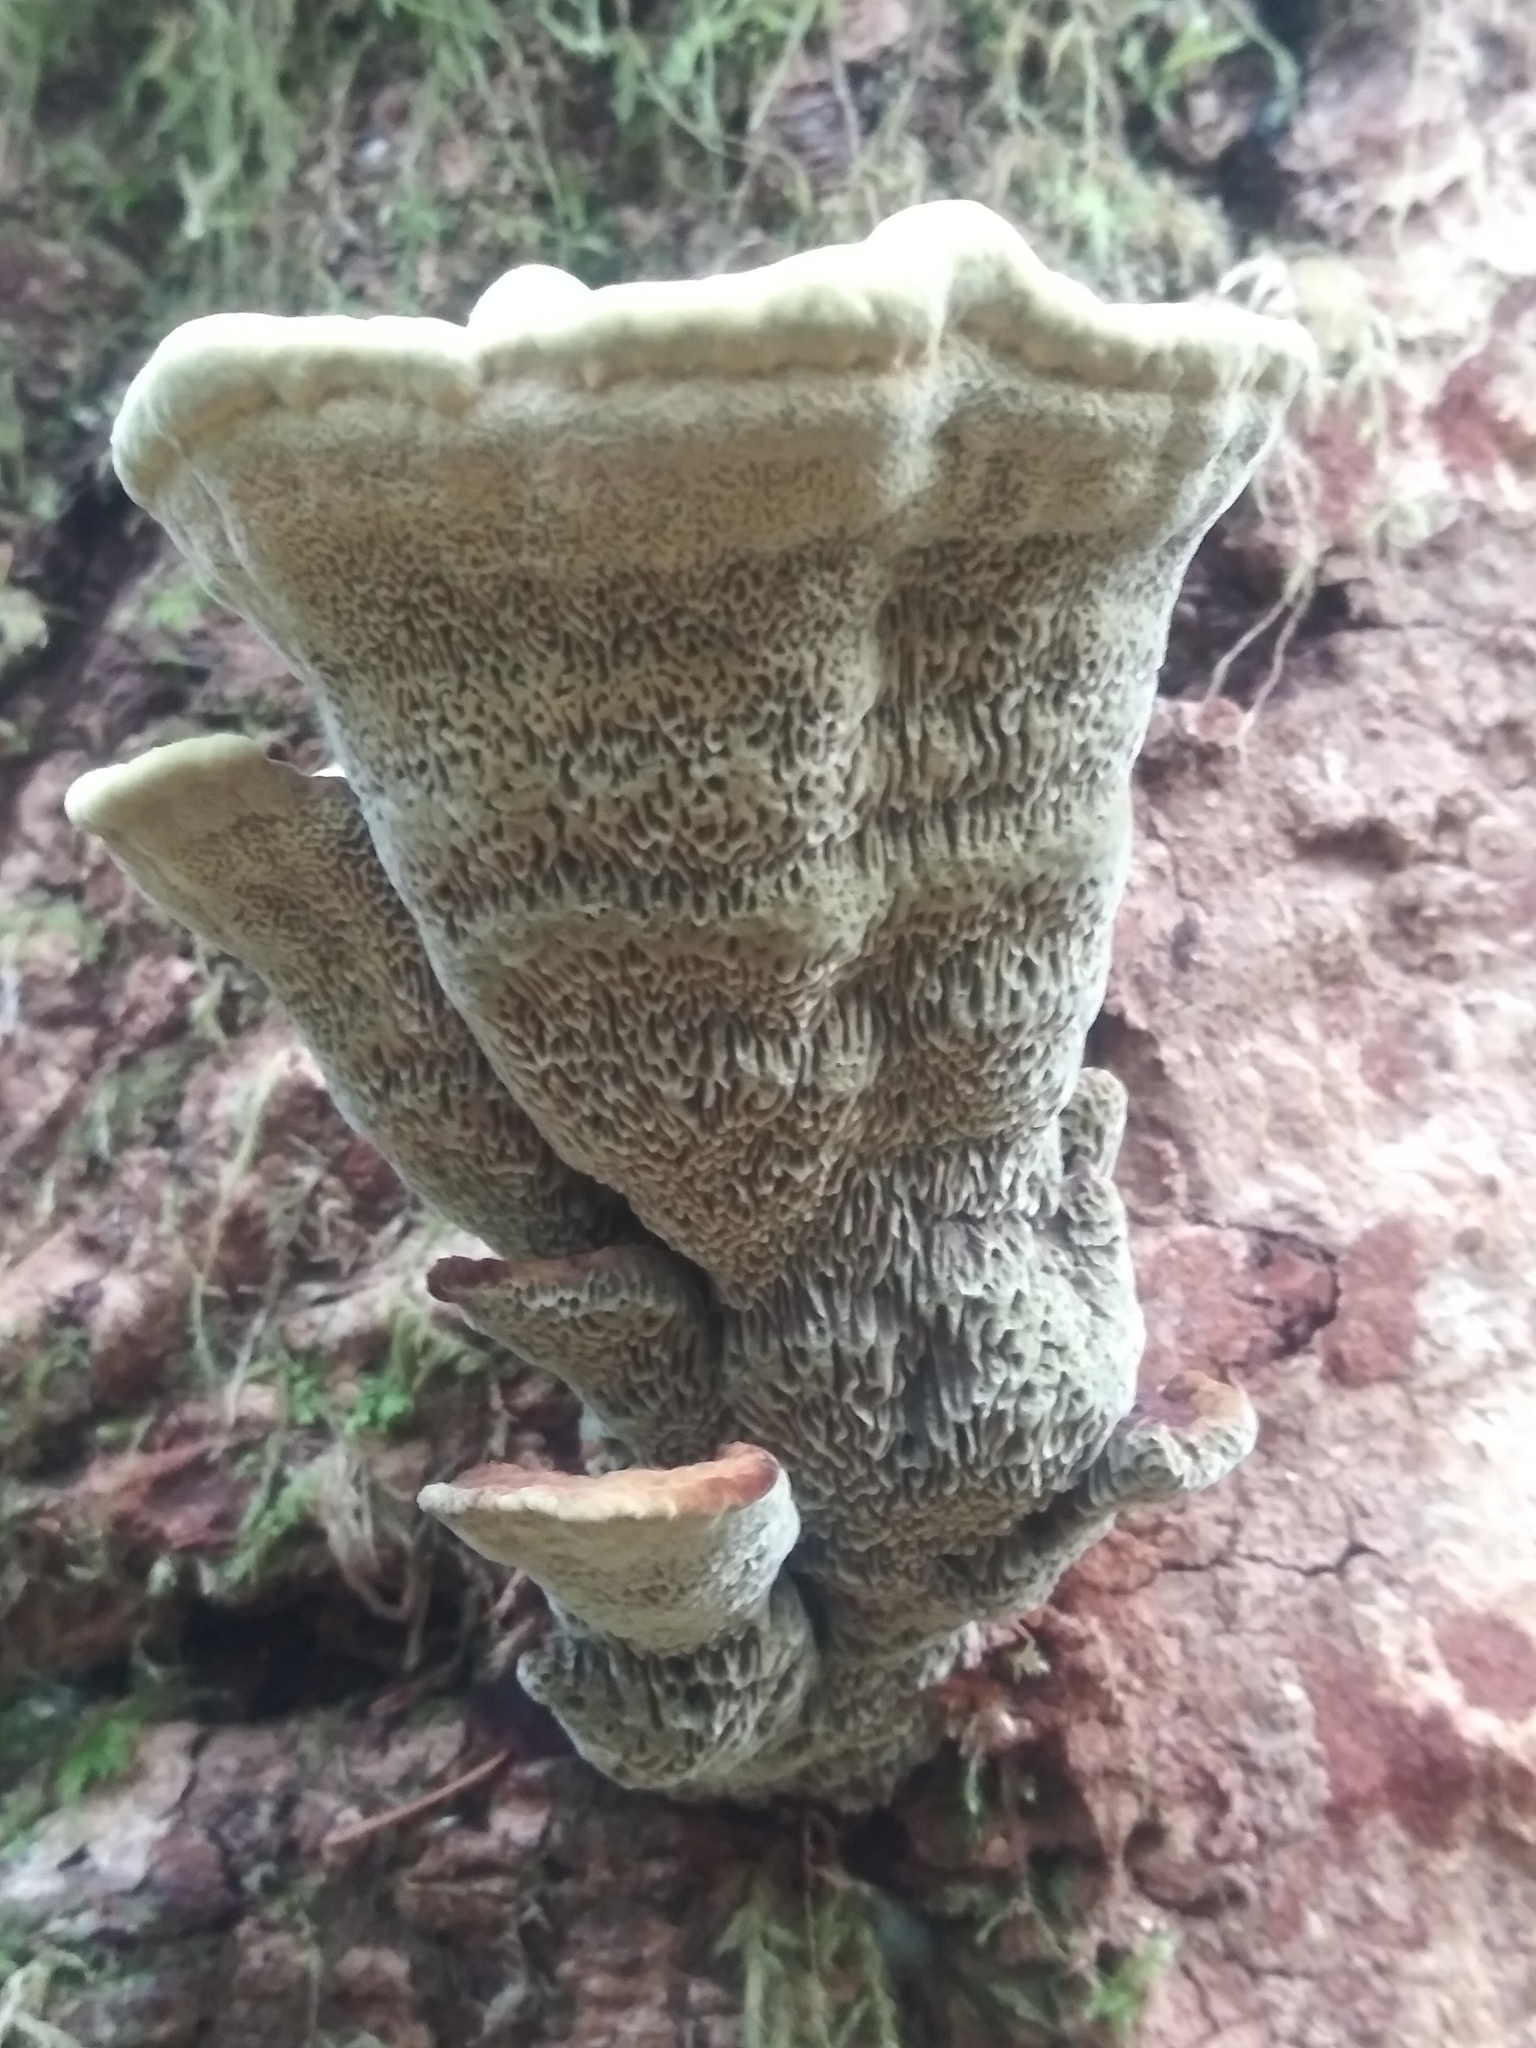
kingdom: Fungi
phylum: Basidiomycota
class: Agaricomycetes
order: Polyporales
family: Laetiporaceae
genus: Phaeolus
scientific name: Phaeolus schweinitzii
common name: Dyer's mazegill
